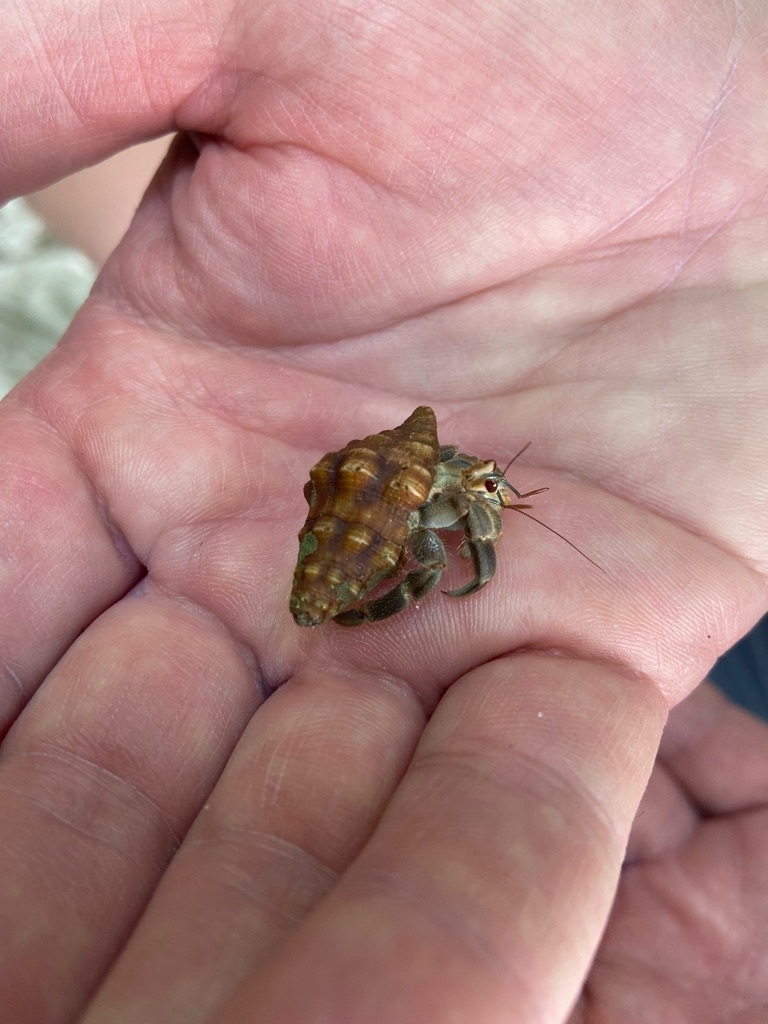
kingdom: Animalia
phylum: Arthropoda
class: Malacostraca
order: Decapoda
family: Coenobitidae
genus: Coenobita
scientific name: Coenobita compressus
